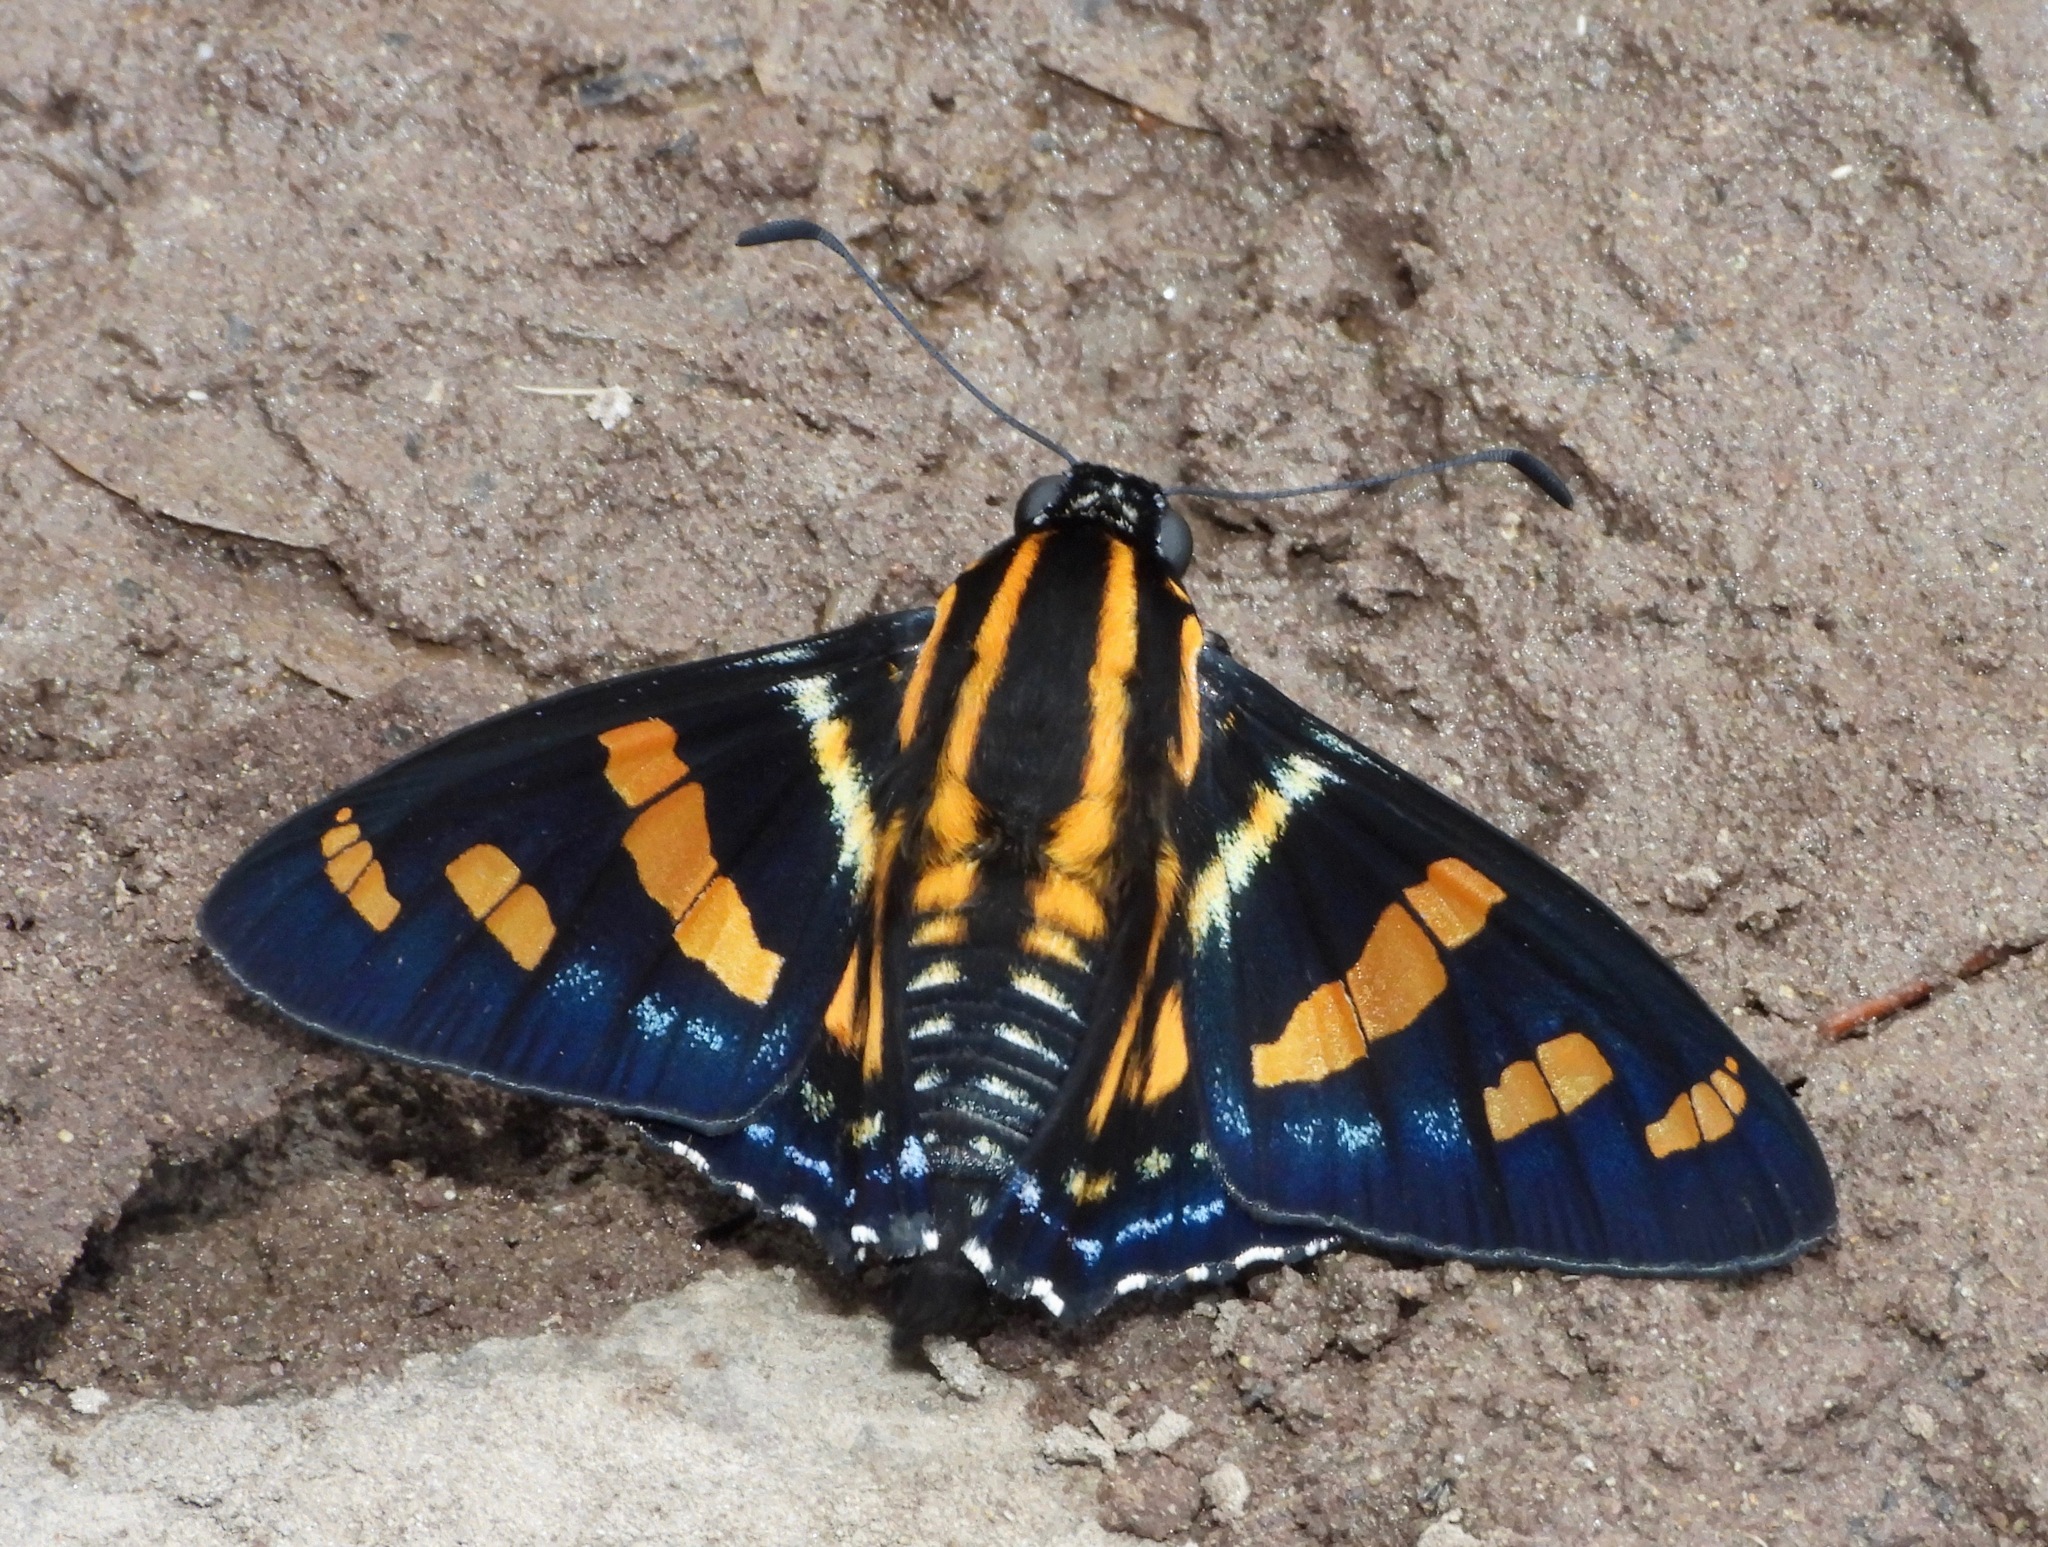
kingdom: Animalia
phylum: Arthropoda
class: Insecta
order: Lepidoptera
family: Hesperiidae
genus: Mimardaris
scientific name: Mimardaris
